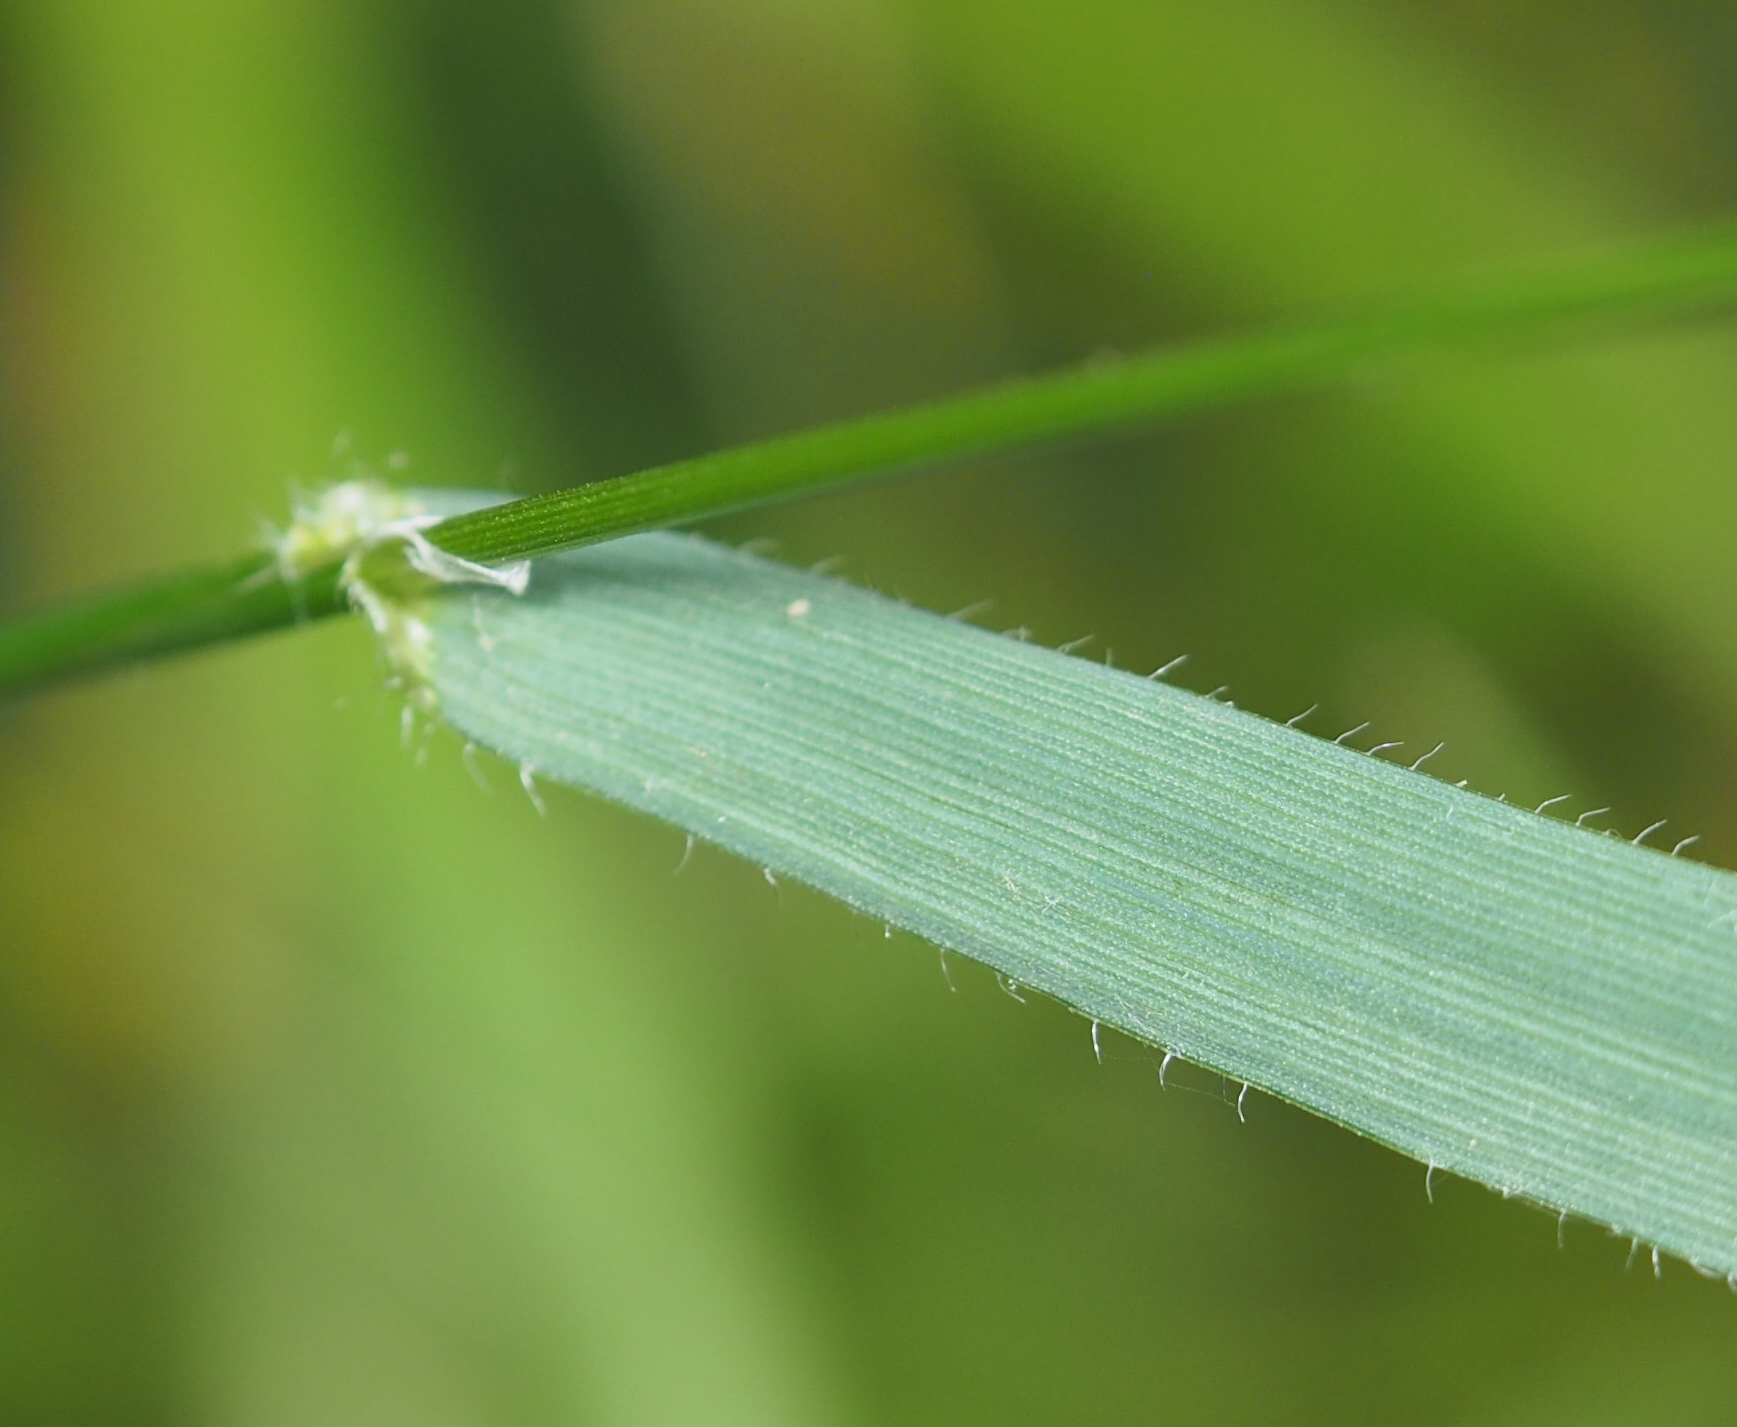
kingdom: Plantae
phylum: Tracheophyta
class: Liliopsida
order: Poales
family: Poaceae
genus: Anthoxanthum
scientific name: Anthoxanthum odoratum
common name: Sweet vernalgrass
